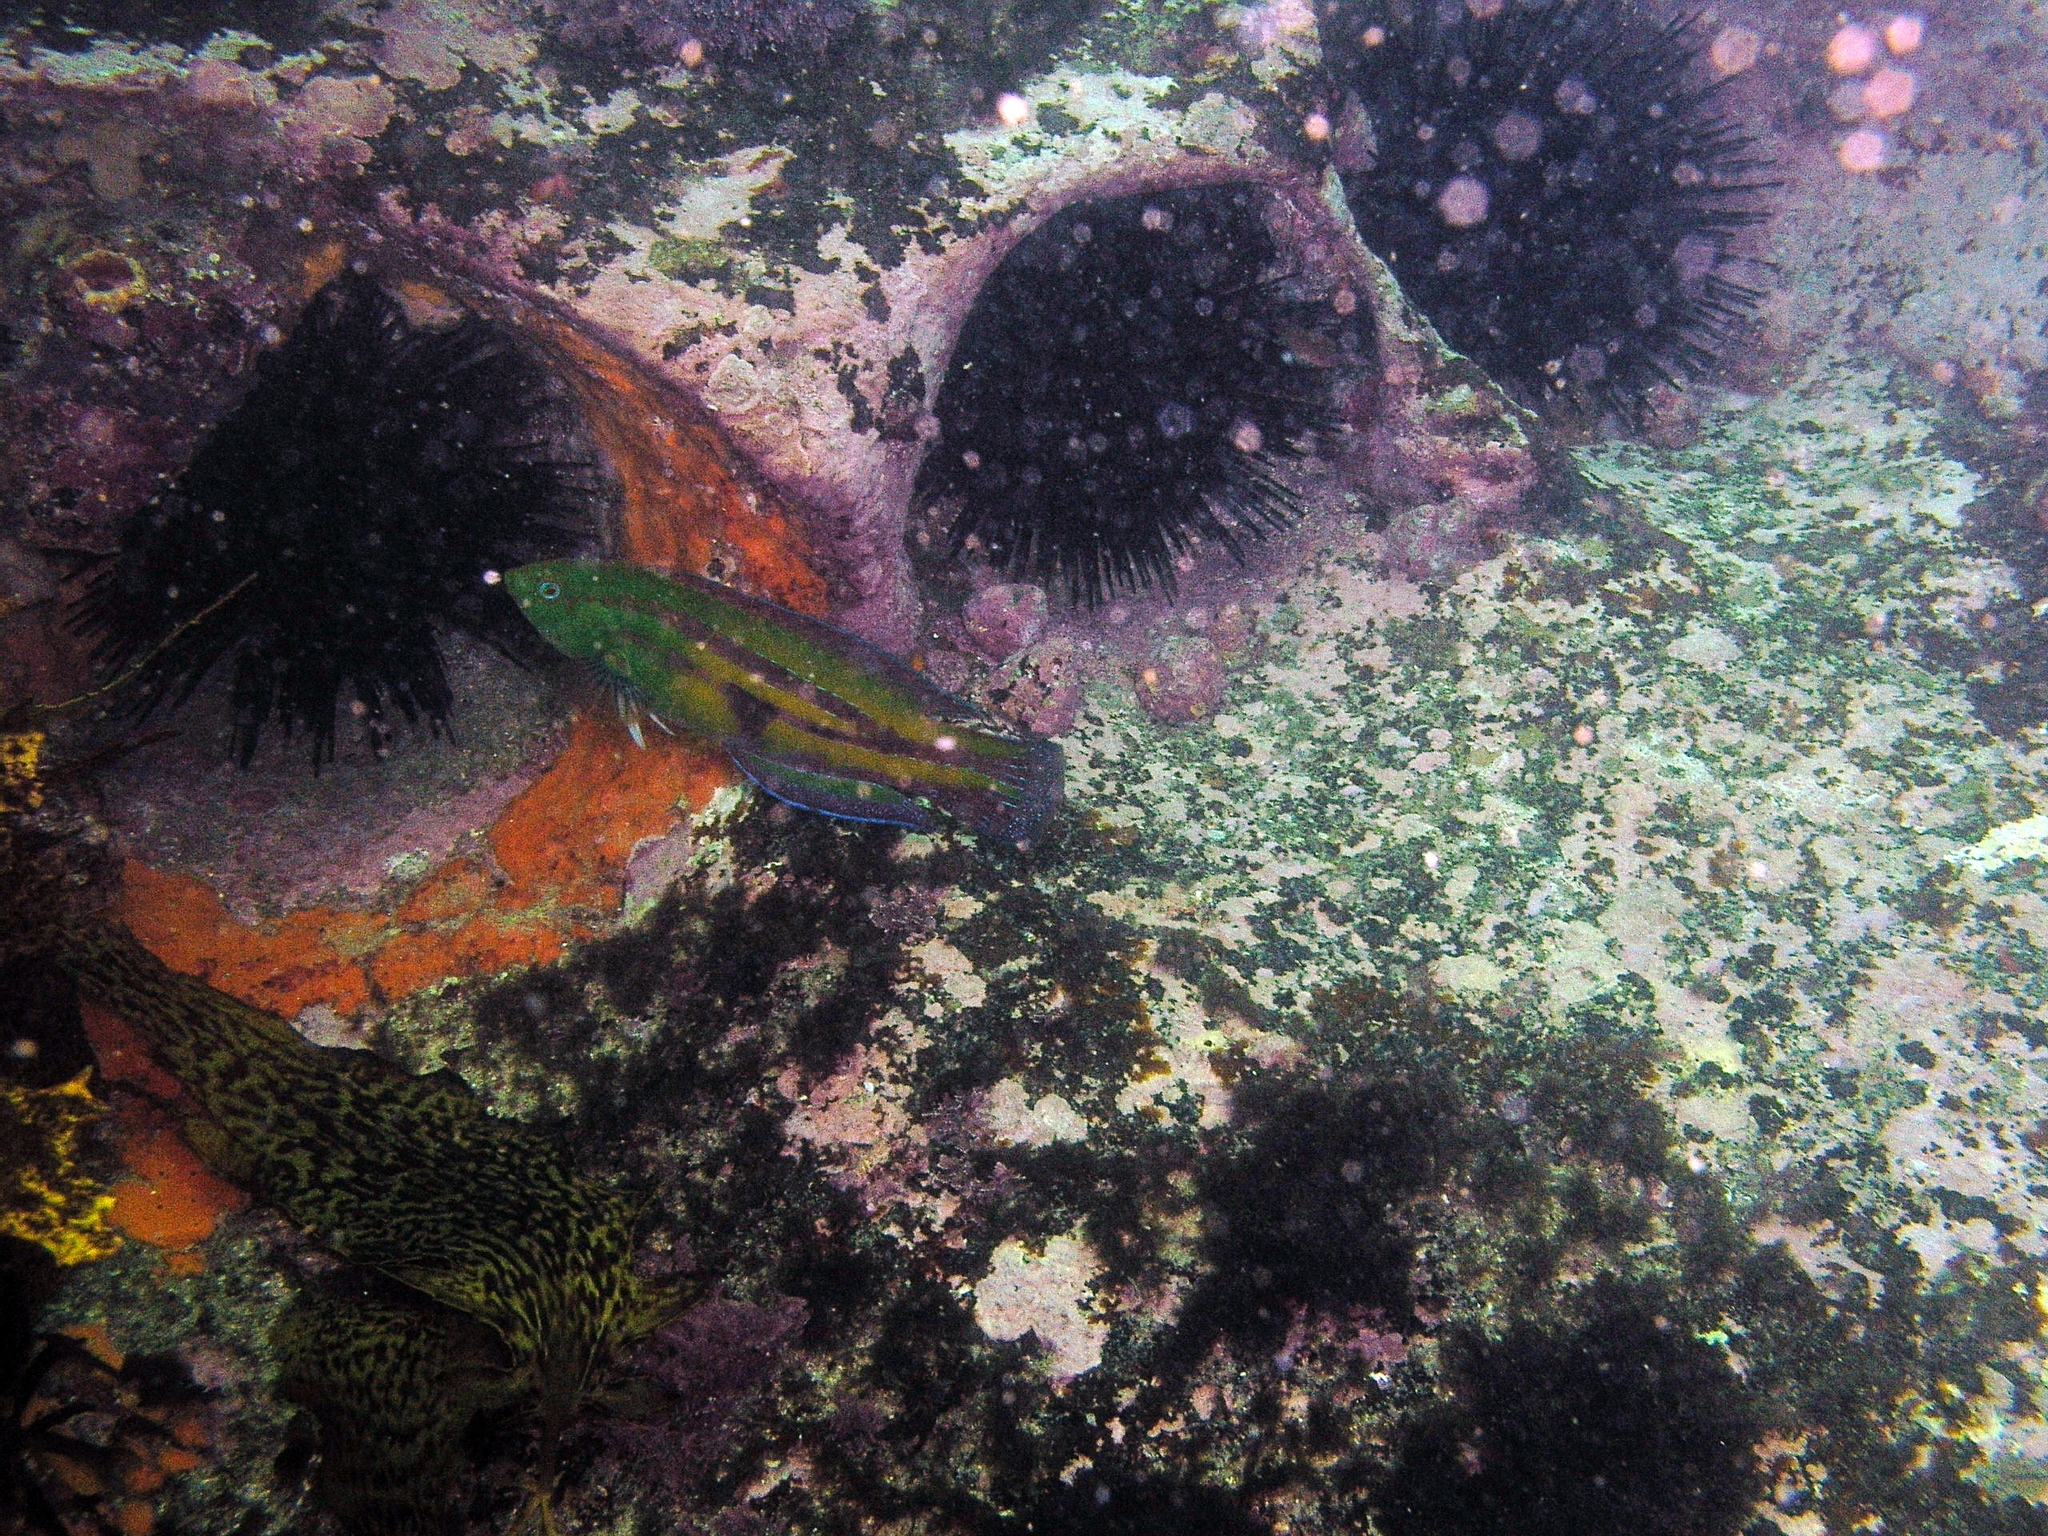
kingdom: Animalia
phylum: Chordata
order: Perciformes
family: Labridae
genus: Pictilabrus
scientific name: Pictilabrus laticlavius
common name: Patrician wrasse
